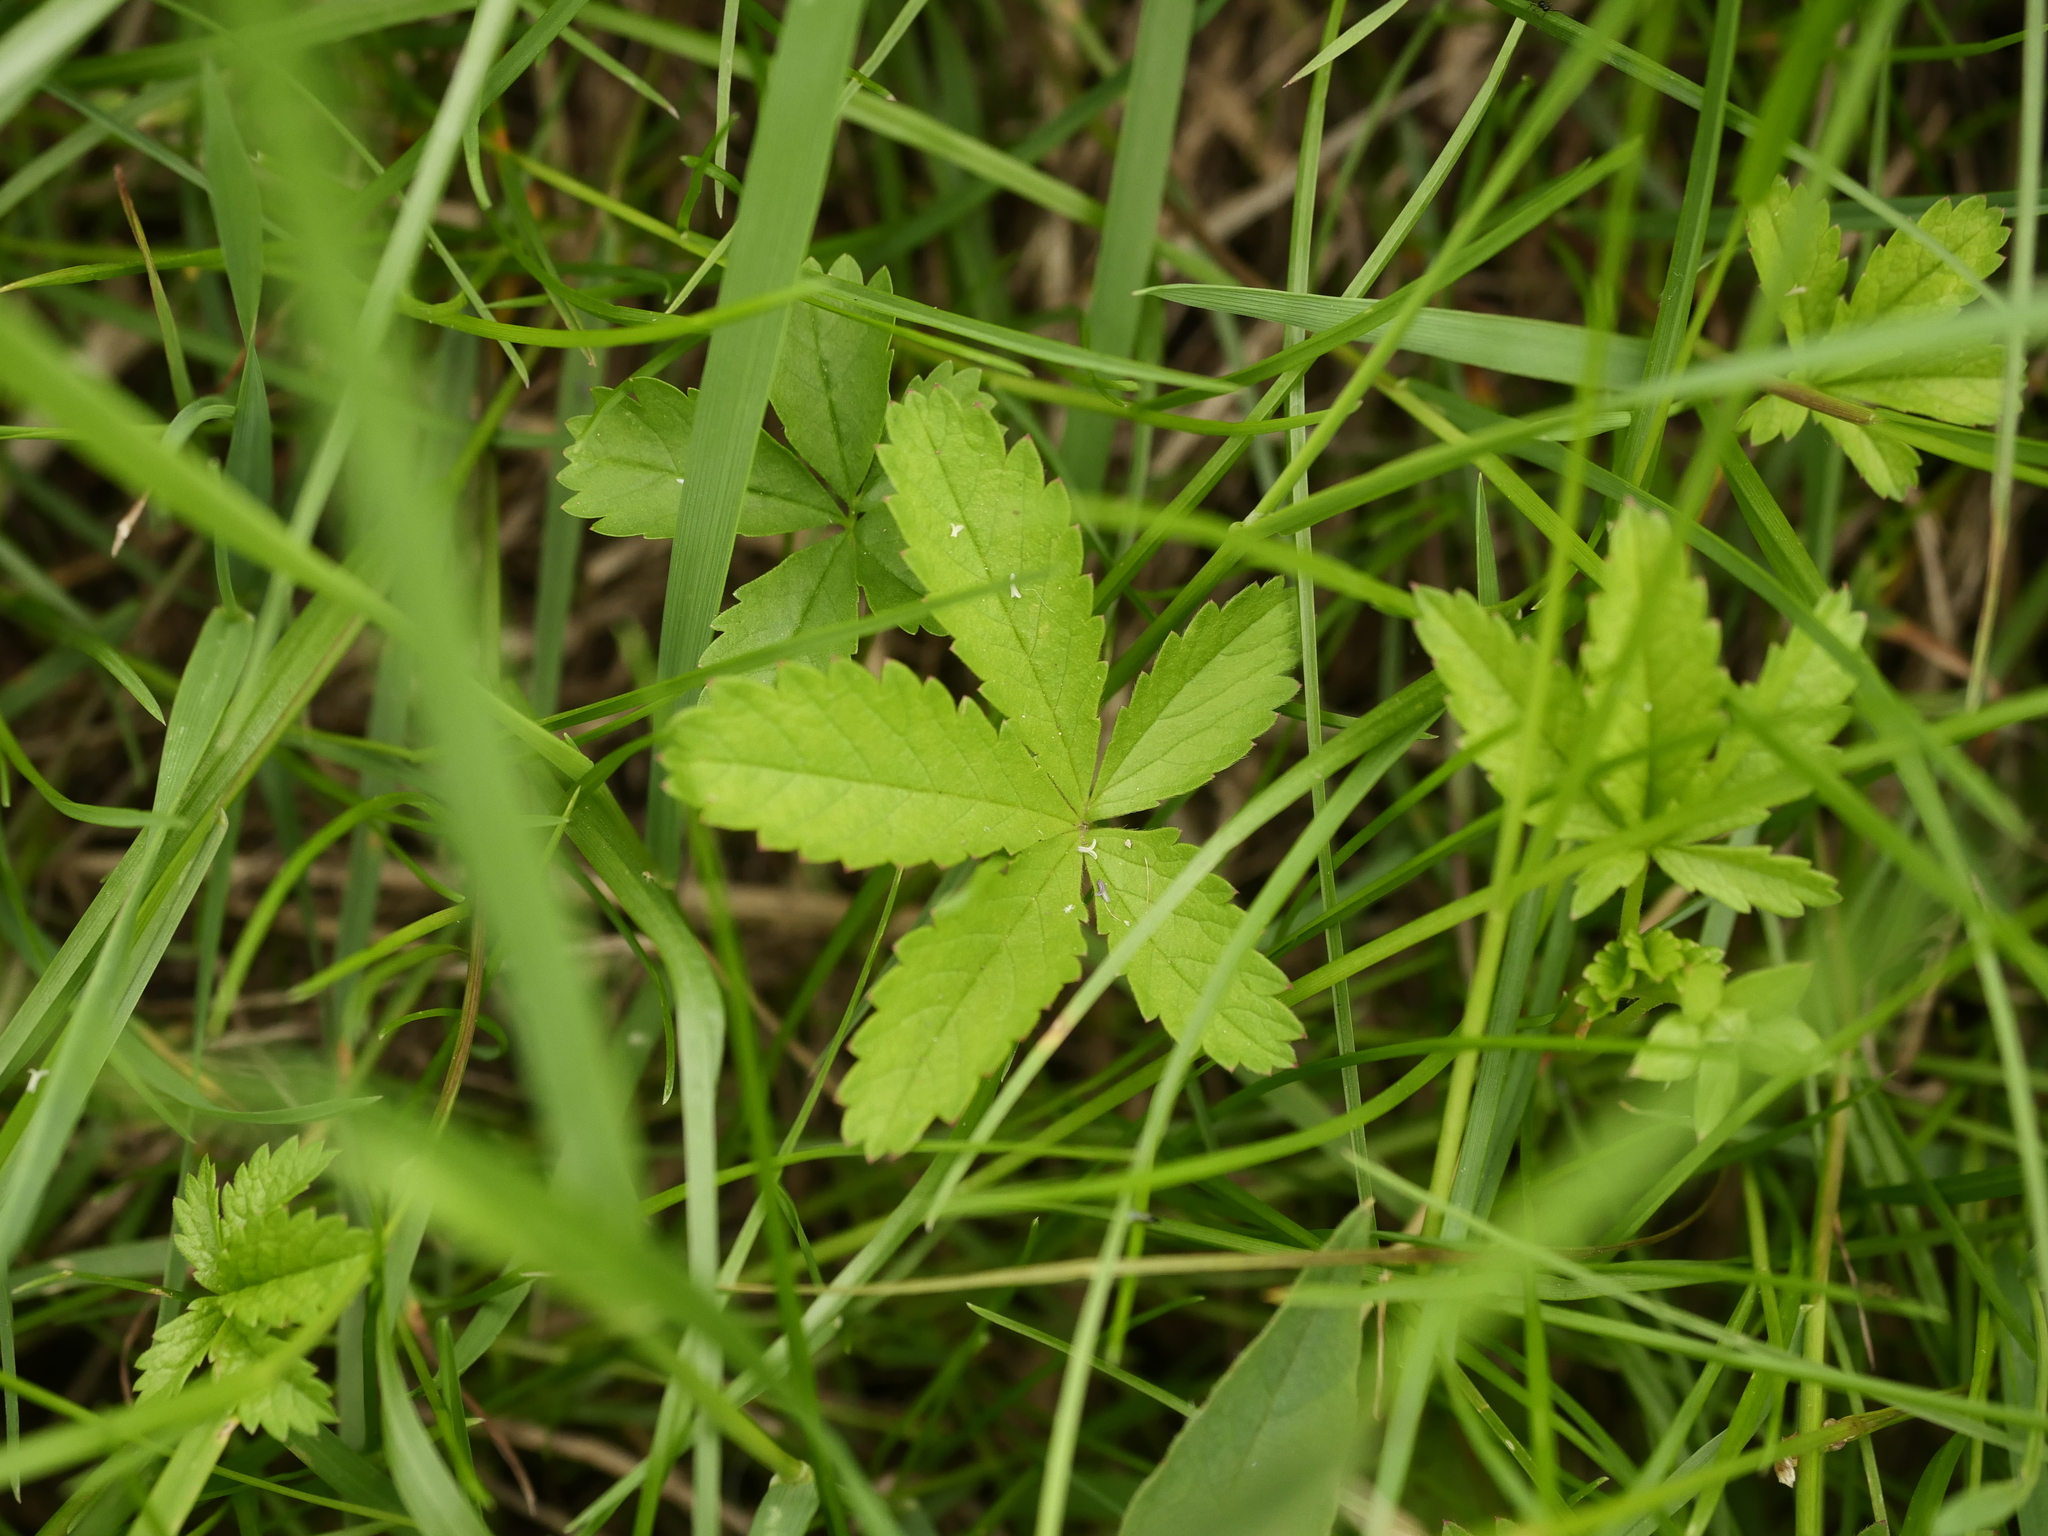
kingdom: Plantae
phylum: Tracheophyta
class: Magnoliopsida
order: Rosales
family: Rosaceae
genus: Potentilla
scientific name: Potentilla reptans
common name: Creeping cinquefoil
